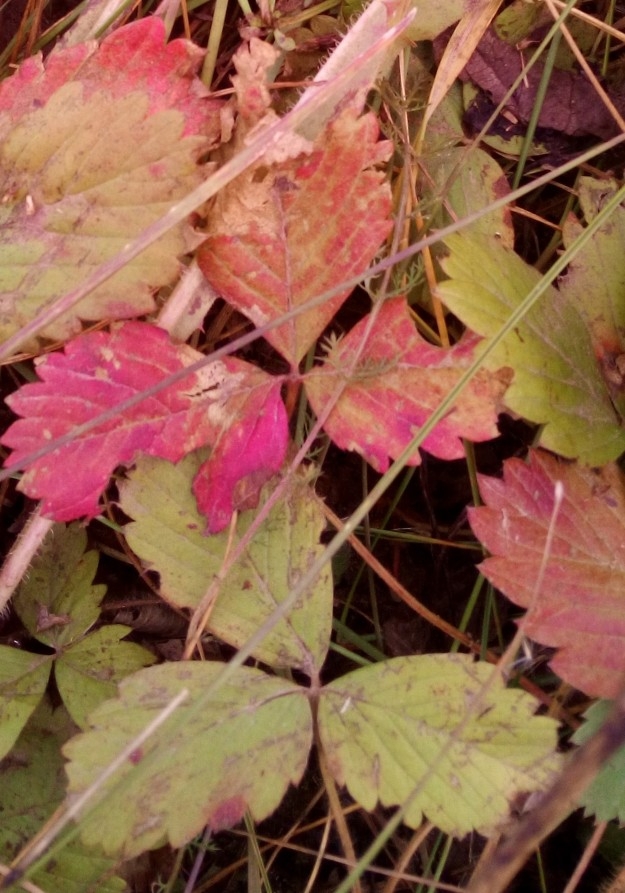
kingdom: Plantae
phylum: Tracheophyta
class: Magnoliopsida
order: Rosales
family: Rosaceae
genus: Fragaria
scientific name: Fragaria viridis
